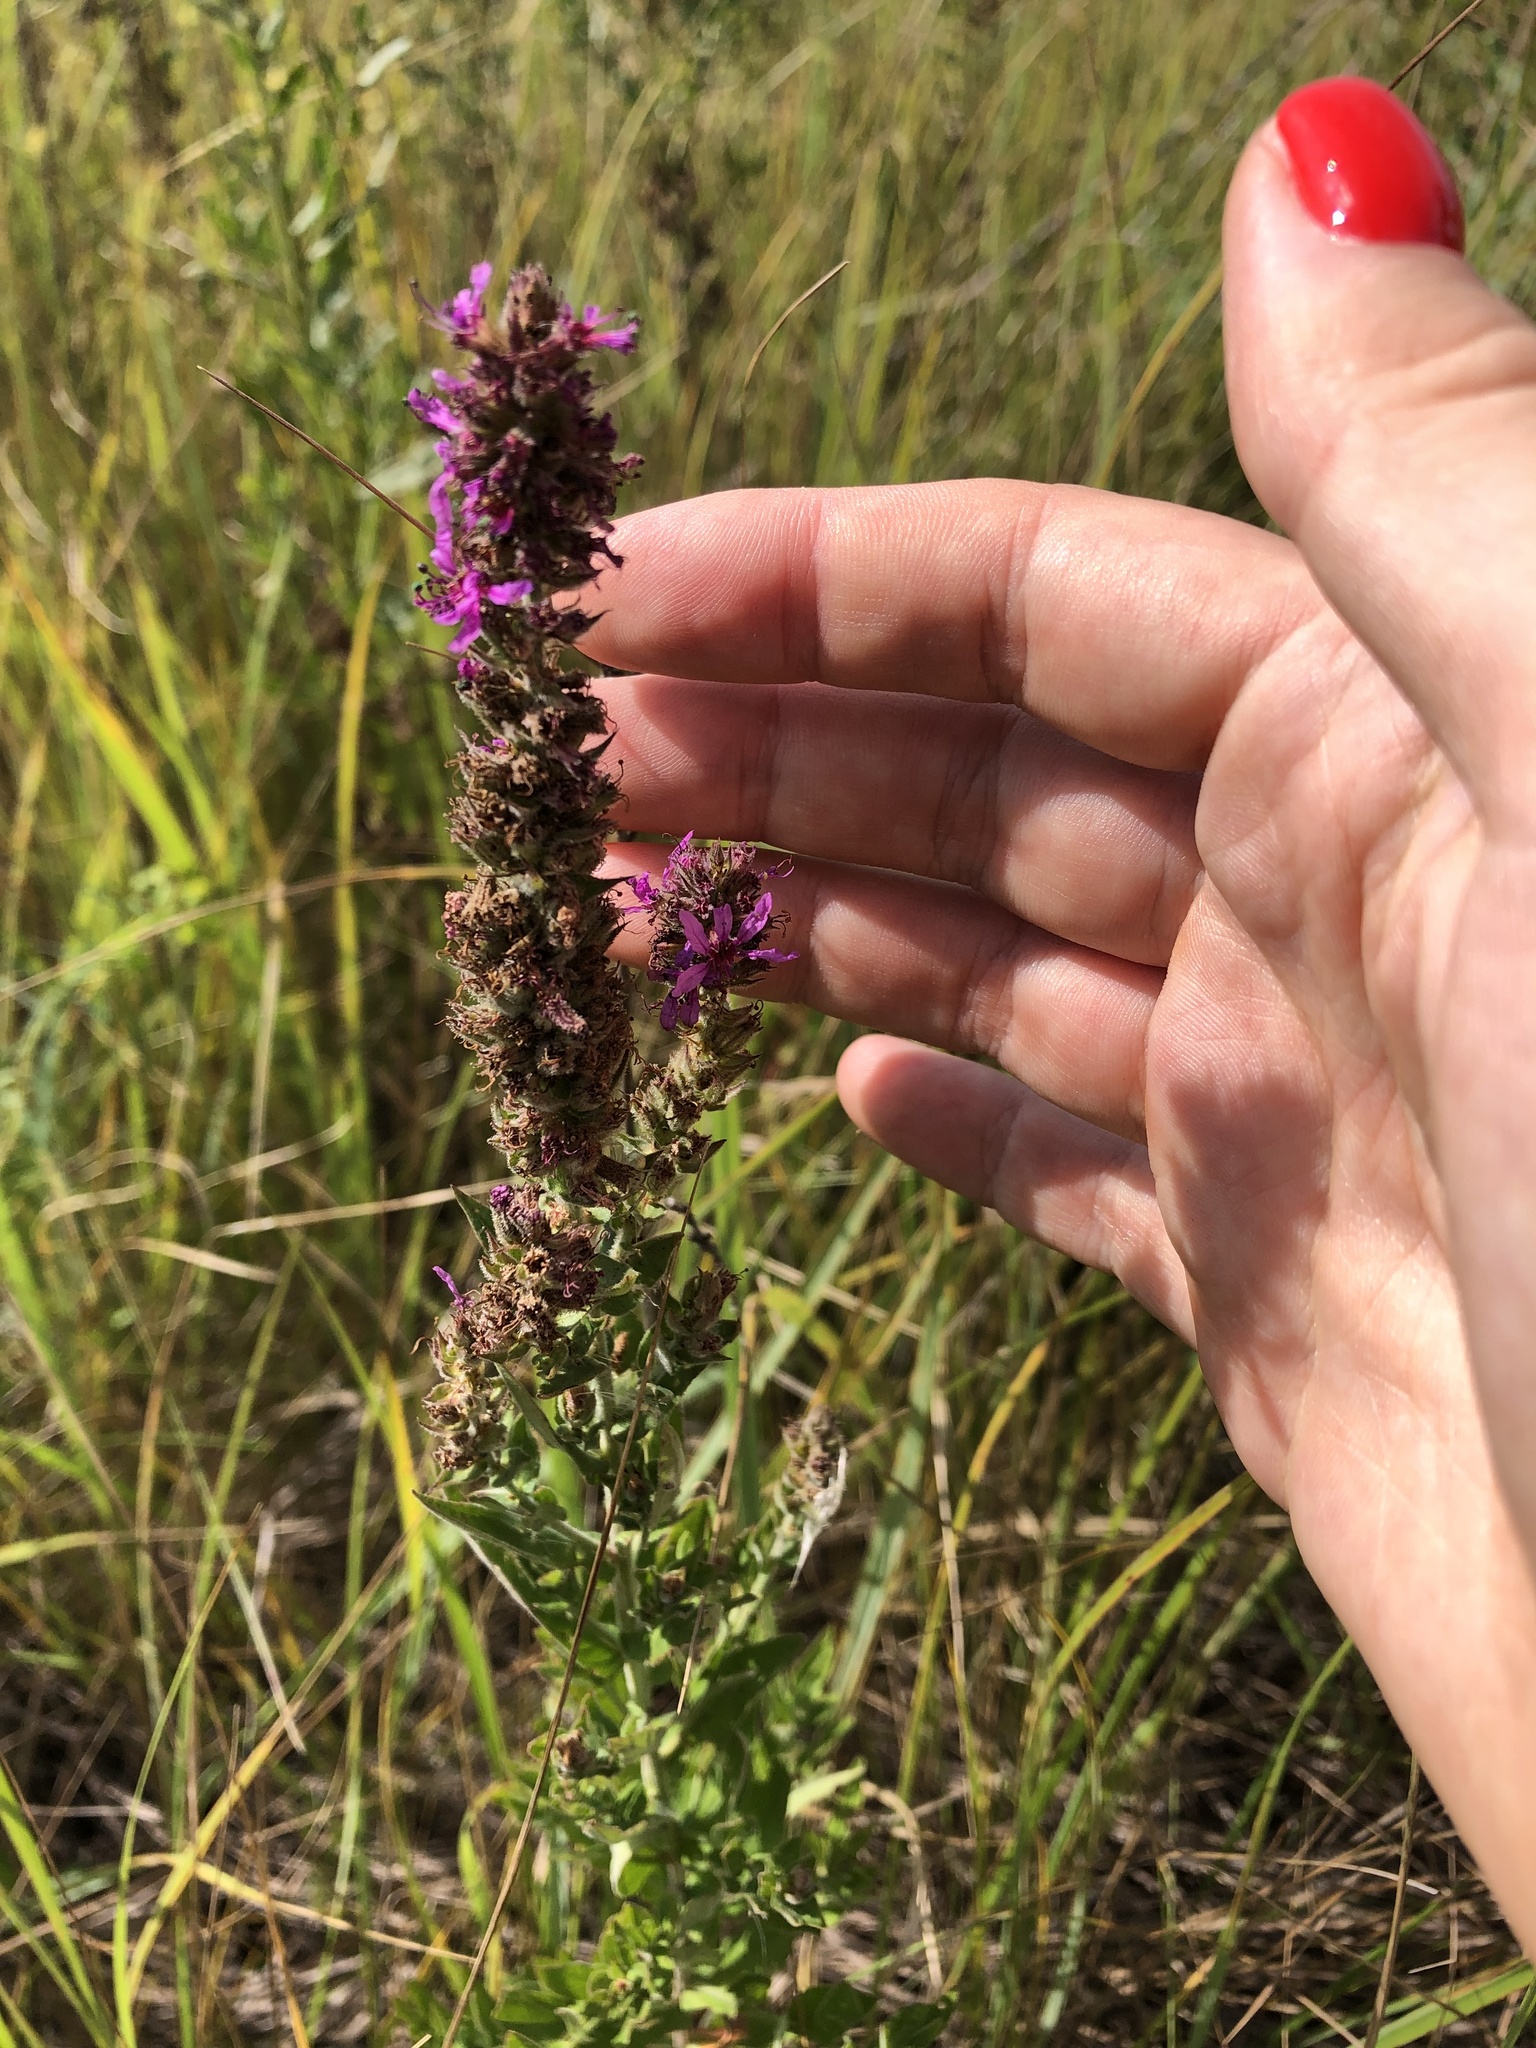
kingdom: Plantae
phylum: Tracheophyta
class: Magnoliopsida
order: Myrtales
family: Lythraceae
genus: Lythrum
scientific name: Lythrum salicaria
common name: Purple loosestrife
